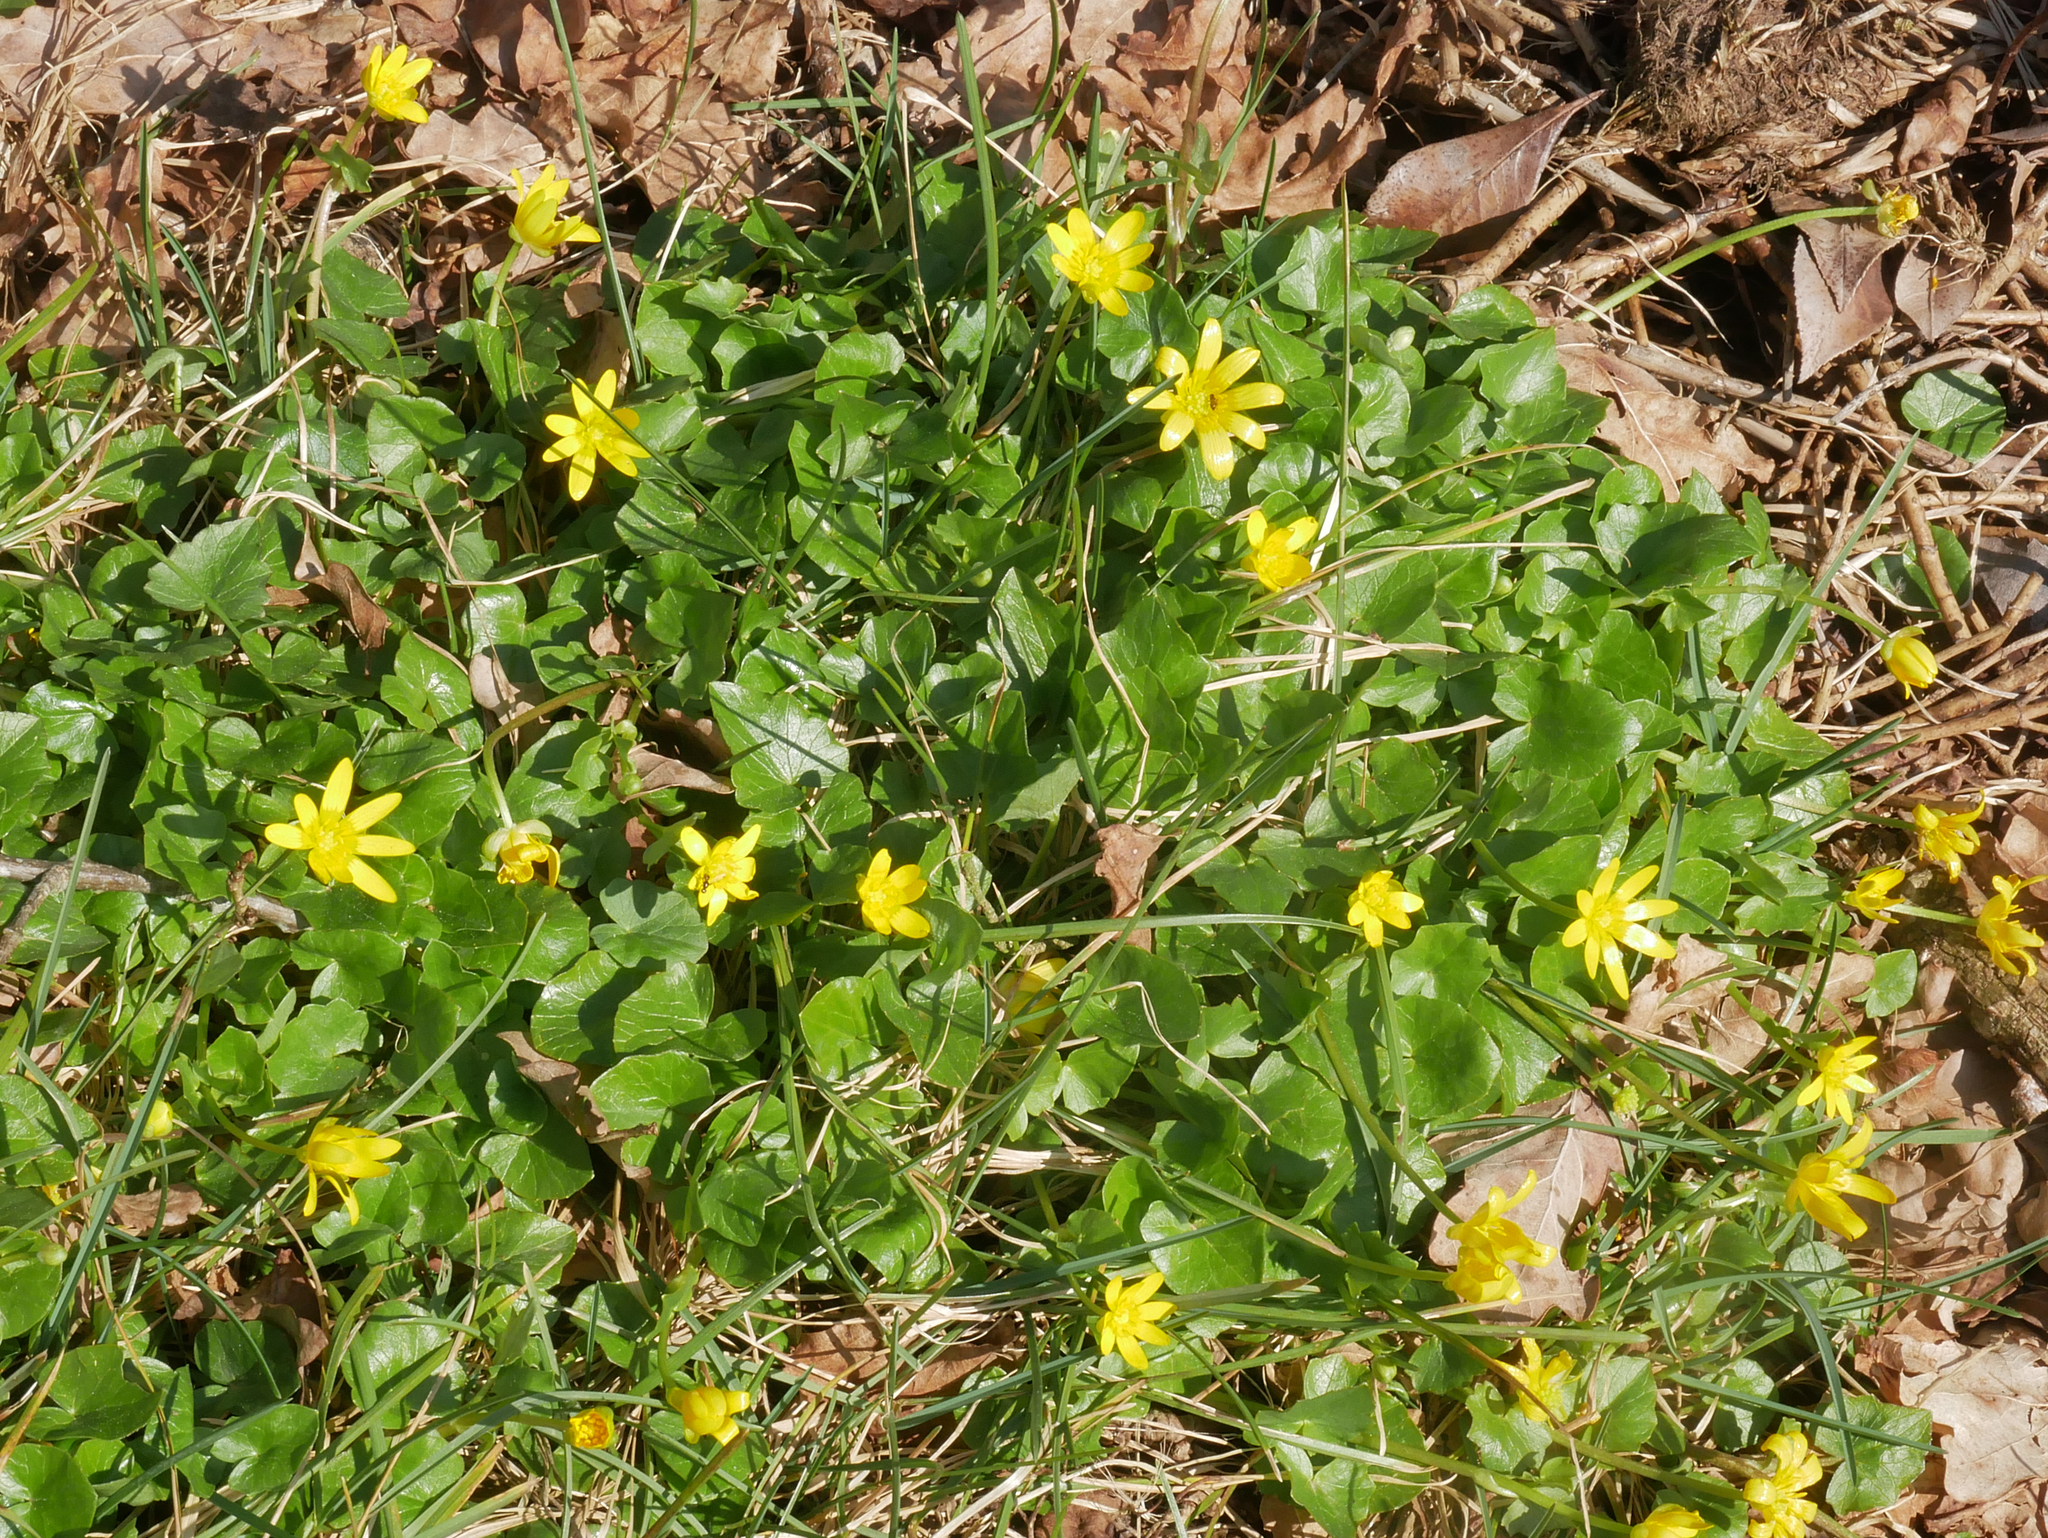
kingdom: Plantae
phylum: Tracheophyta
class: Magnoliopsida
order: Ranunculales
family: Ranunculaceae
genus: Ficaria
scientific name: Ficaria verna
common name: Lesser celandine
